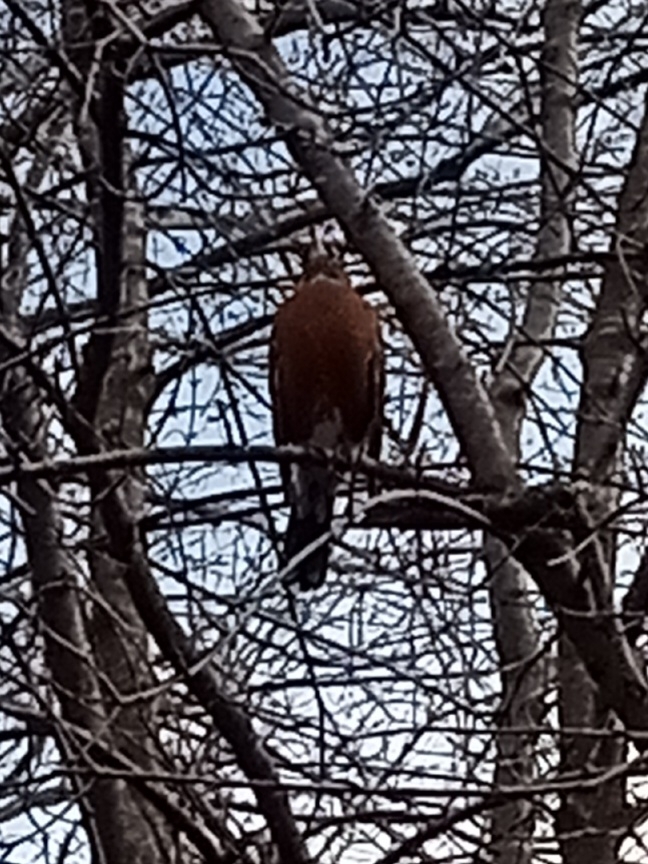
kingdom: Animalia
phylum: Chordata
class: Aves
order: Passeriformes
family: Turdidae
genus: Turdus
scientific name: Turdus migratorius
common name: American robin
